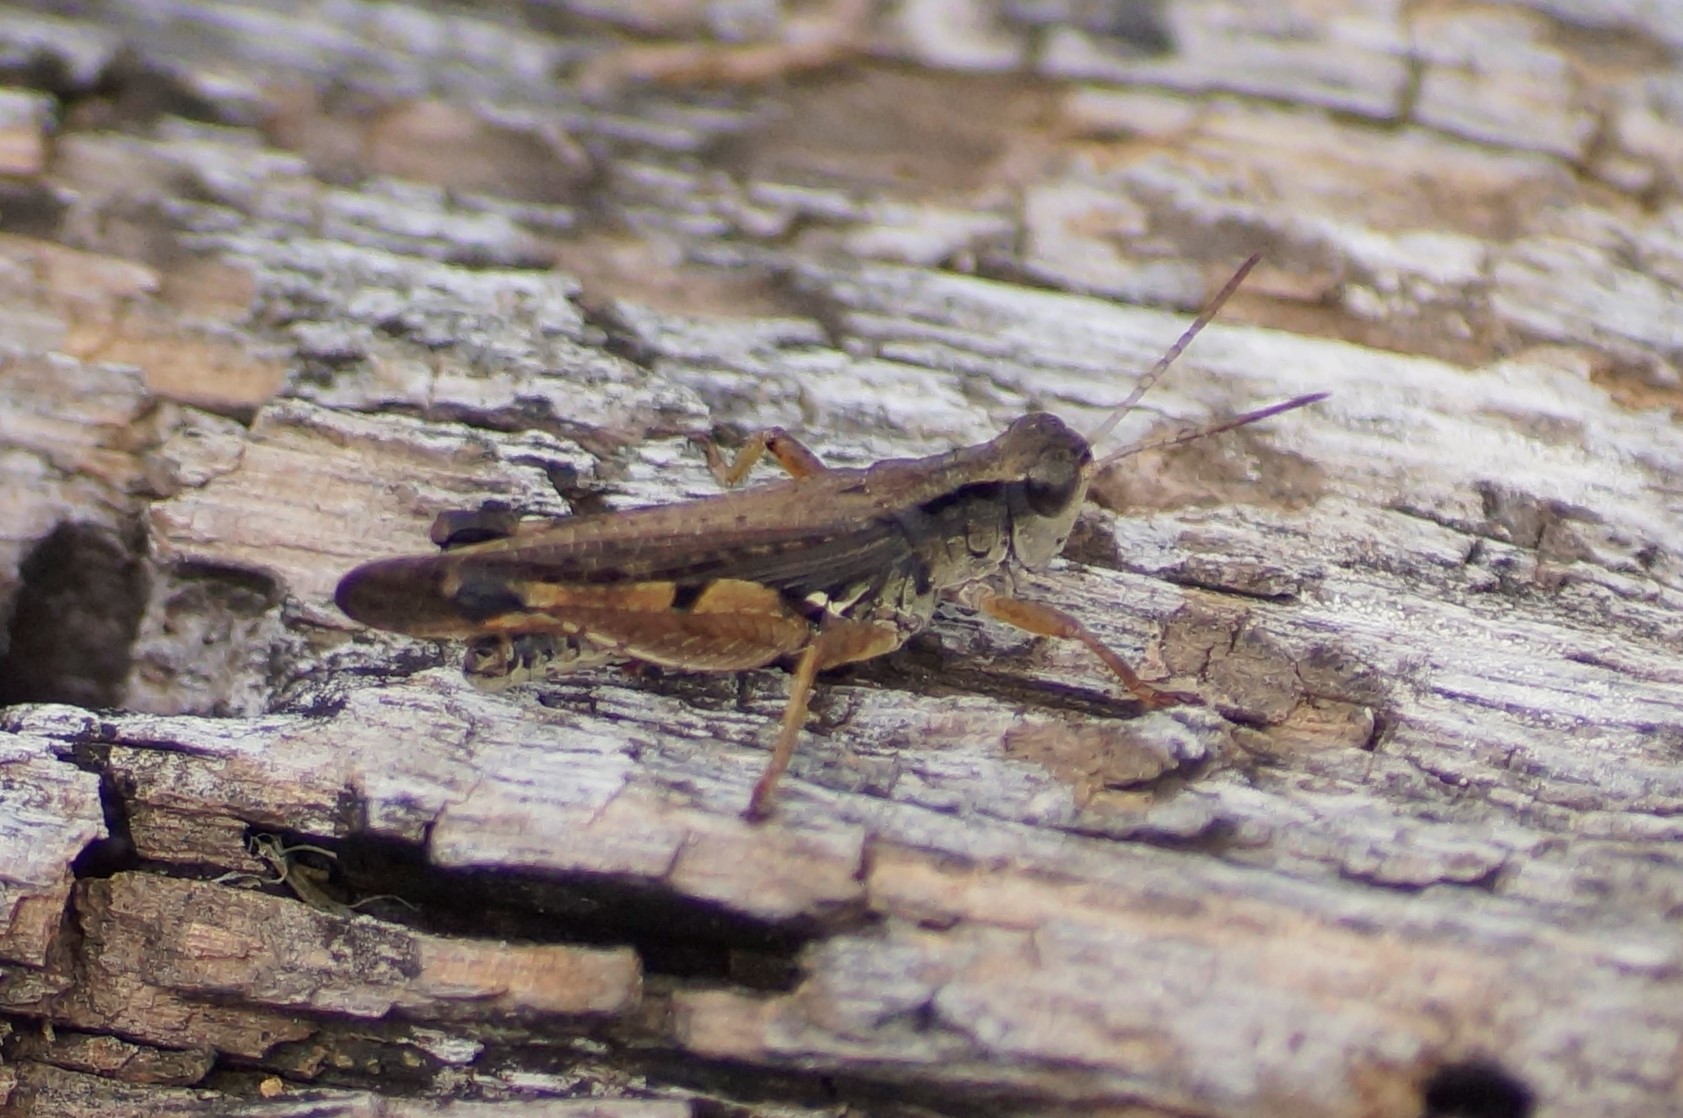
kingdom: Animalia
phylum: Arthropoda
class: Insecta
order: Orthoptera
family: Acrididae
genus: Phaulacridium
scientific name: Phaulacridium vittatum
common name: Wingless grasshopper
